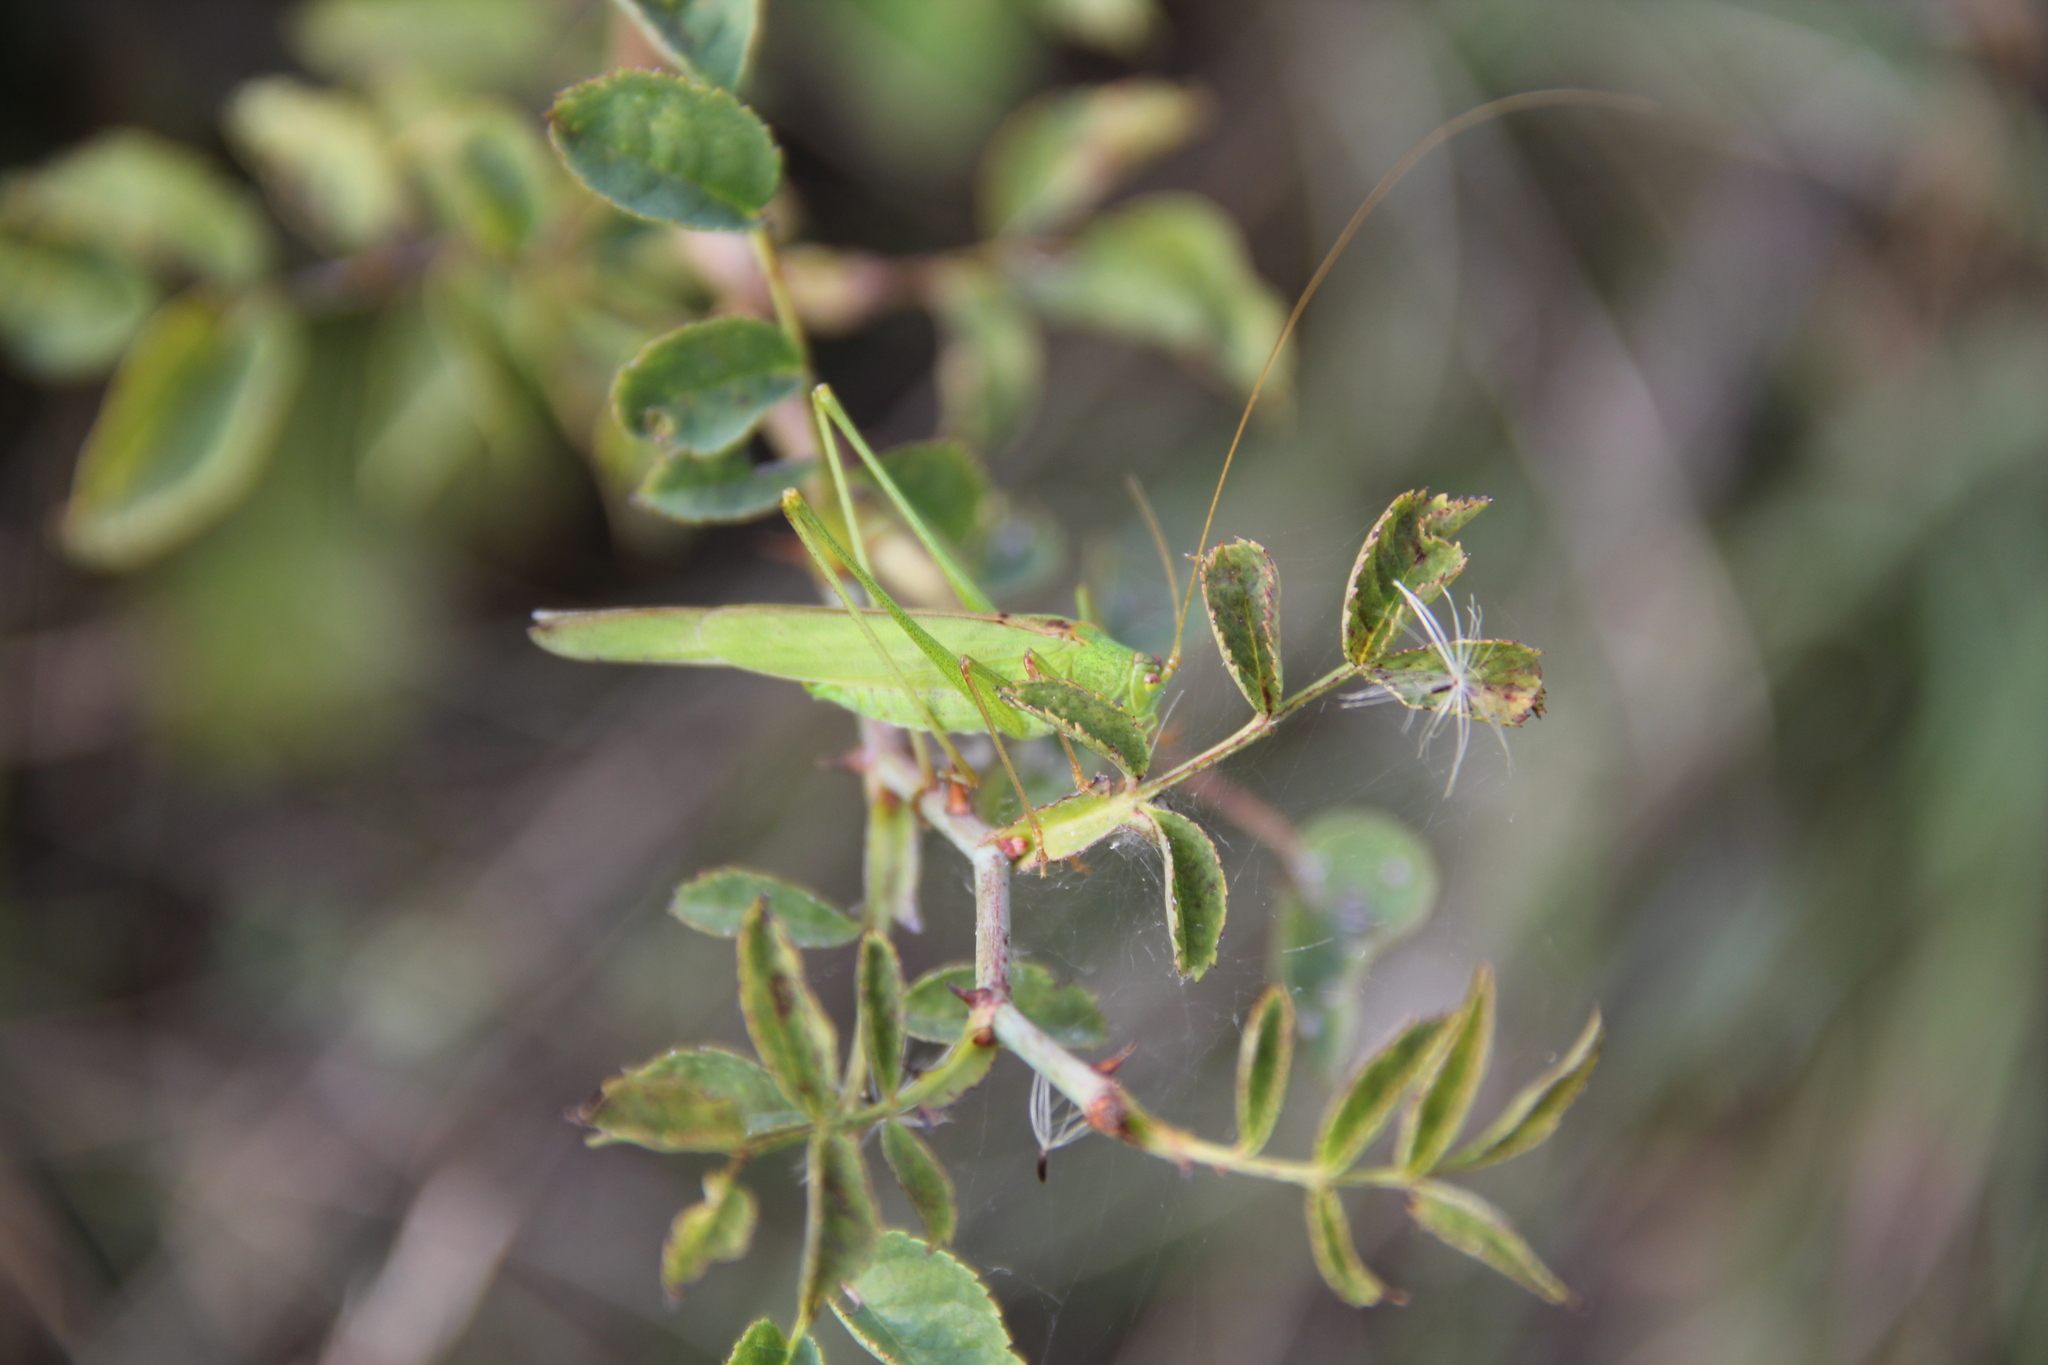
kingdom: Animalia
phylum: Arthropoda
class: Insecta
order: Orthoptera
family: Tettigoniidae
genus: Phaneroptera
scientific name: Phaneroptera falcata
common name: Sickle-bearing bush-cricket
